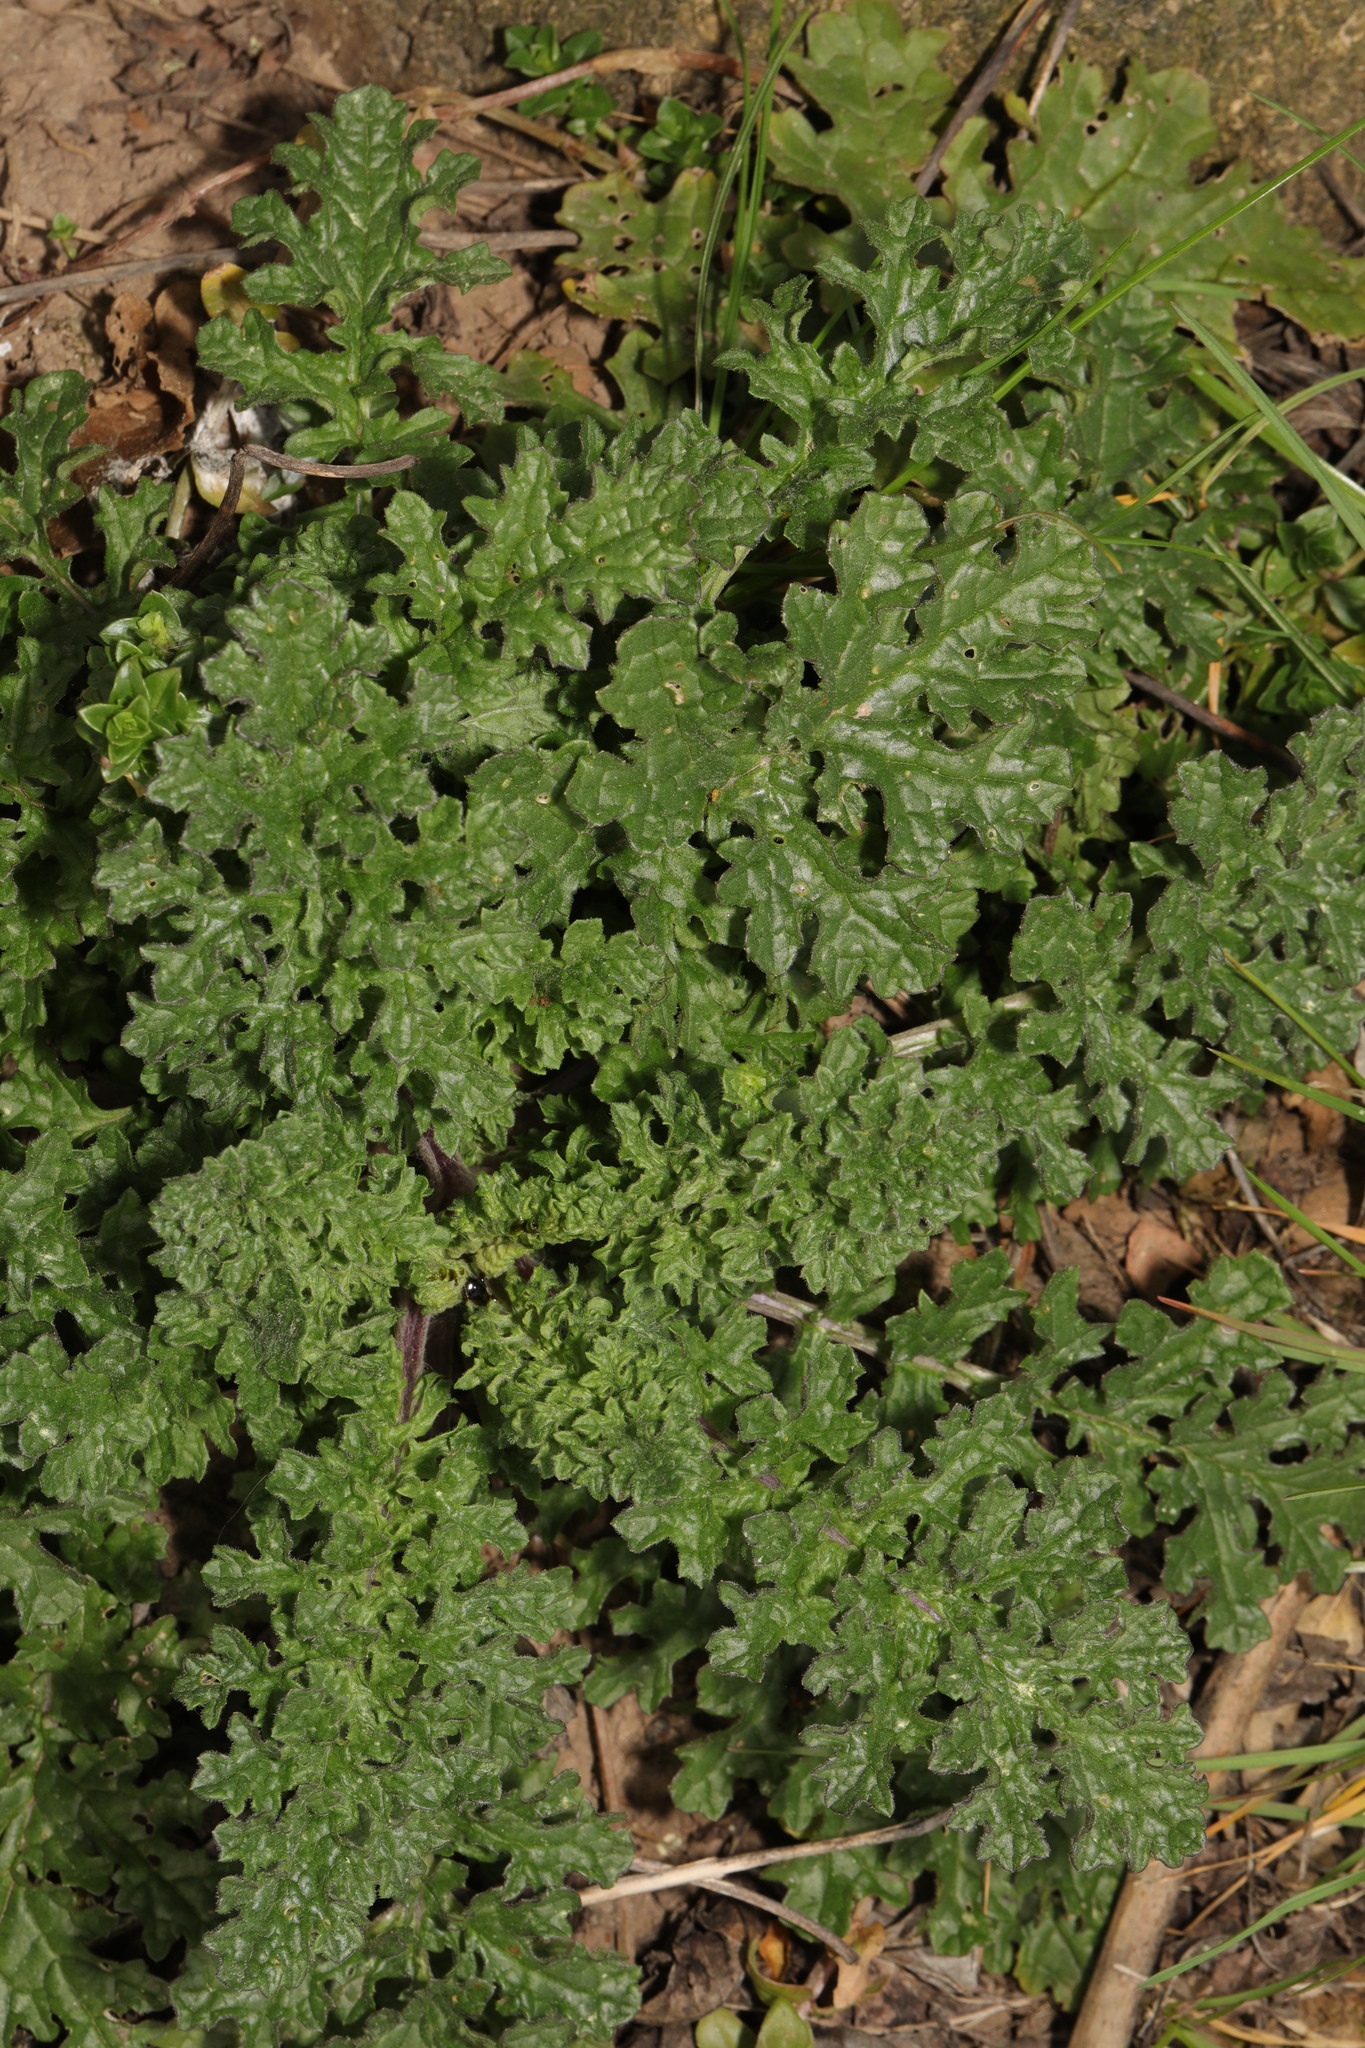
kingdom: Plantae
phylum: Tracheophyta
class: Magnoliopsida
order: Asterales
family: Asteraceae
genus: Jacobaea
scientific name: Jacobaea vulgaris
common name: Stinking willie
